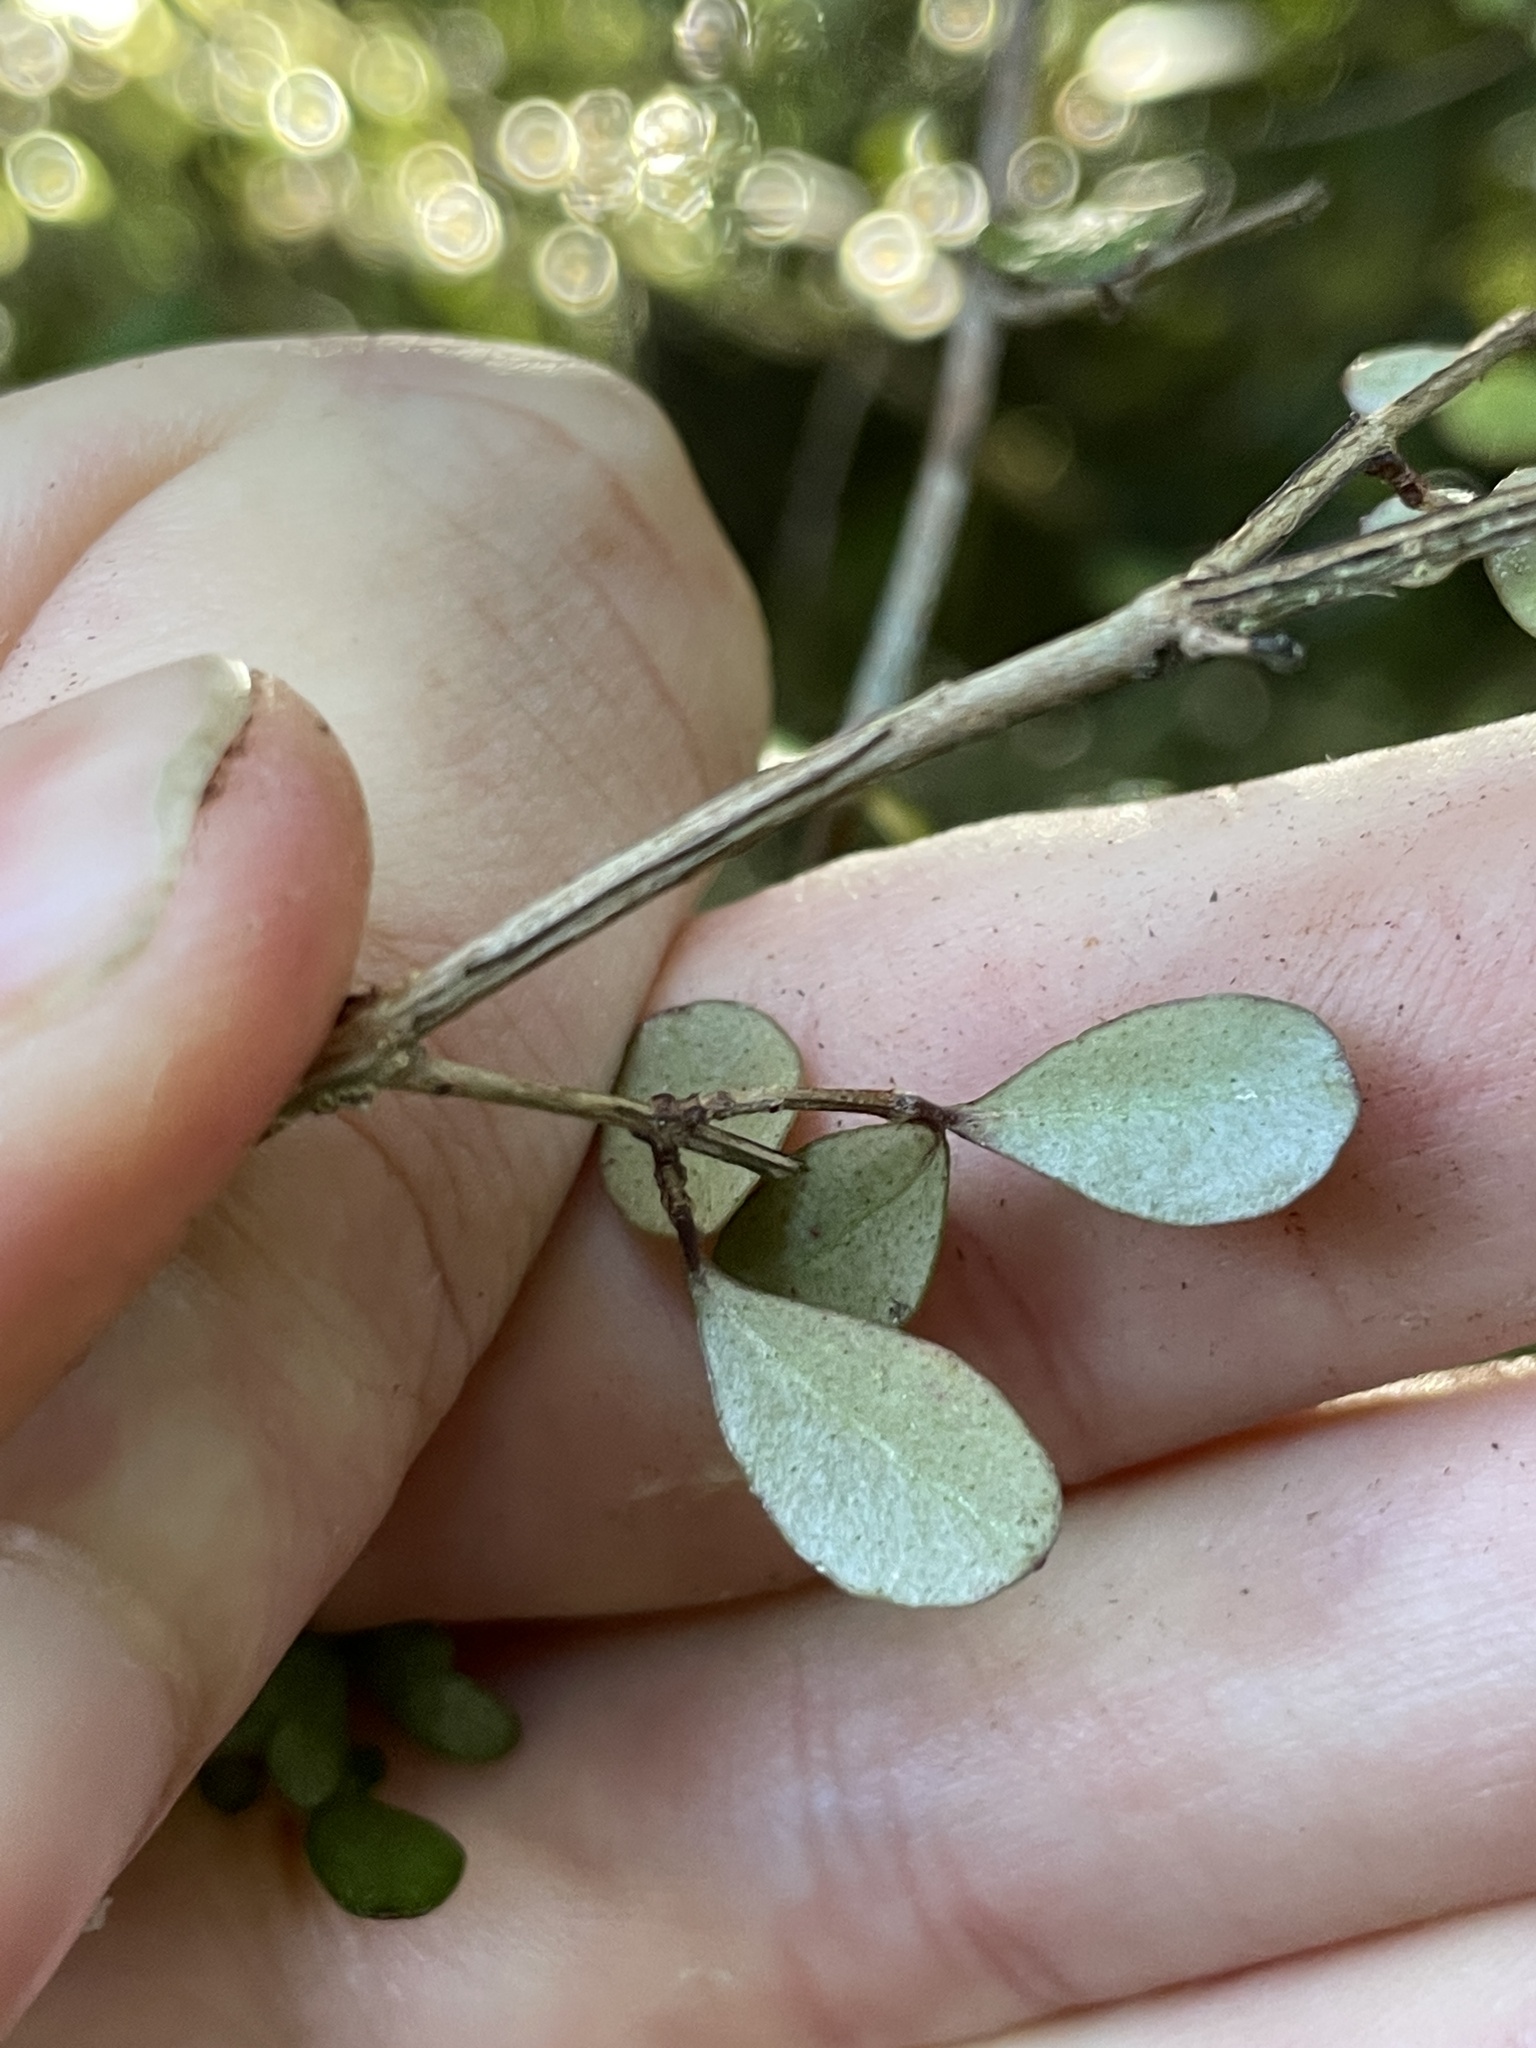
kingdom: Plantae
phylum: Tracheophyta
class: Magnoliopsida
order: Myrtales
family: Myrtaceae
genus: Neomyrtus
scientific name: Neomyrtus pedunculata
